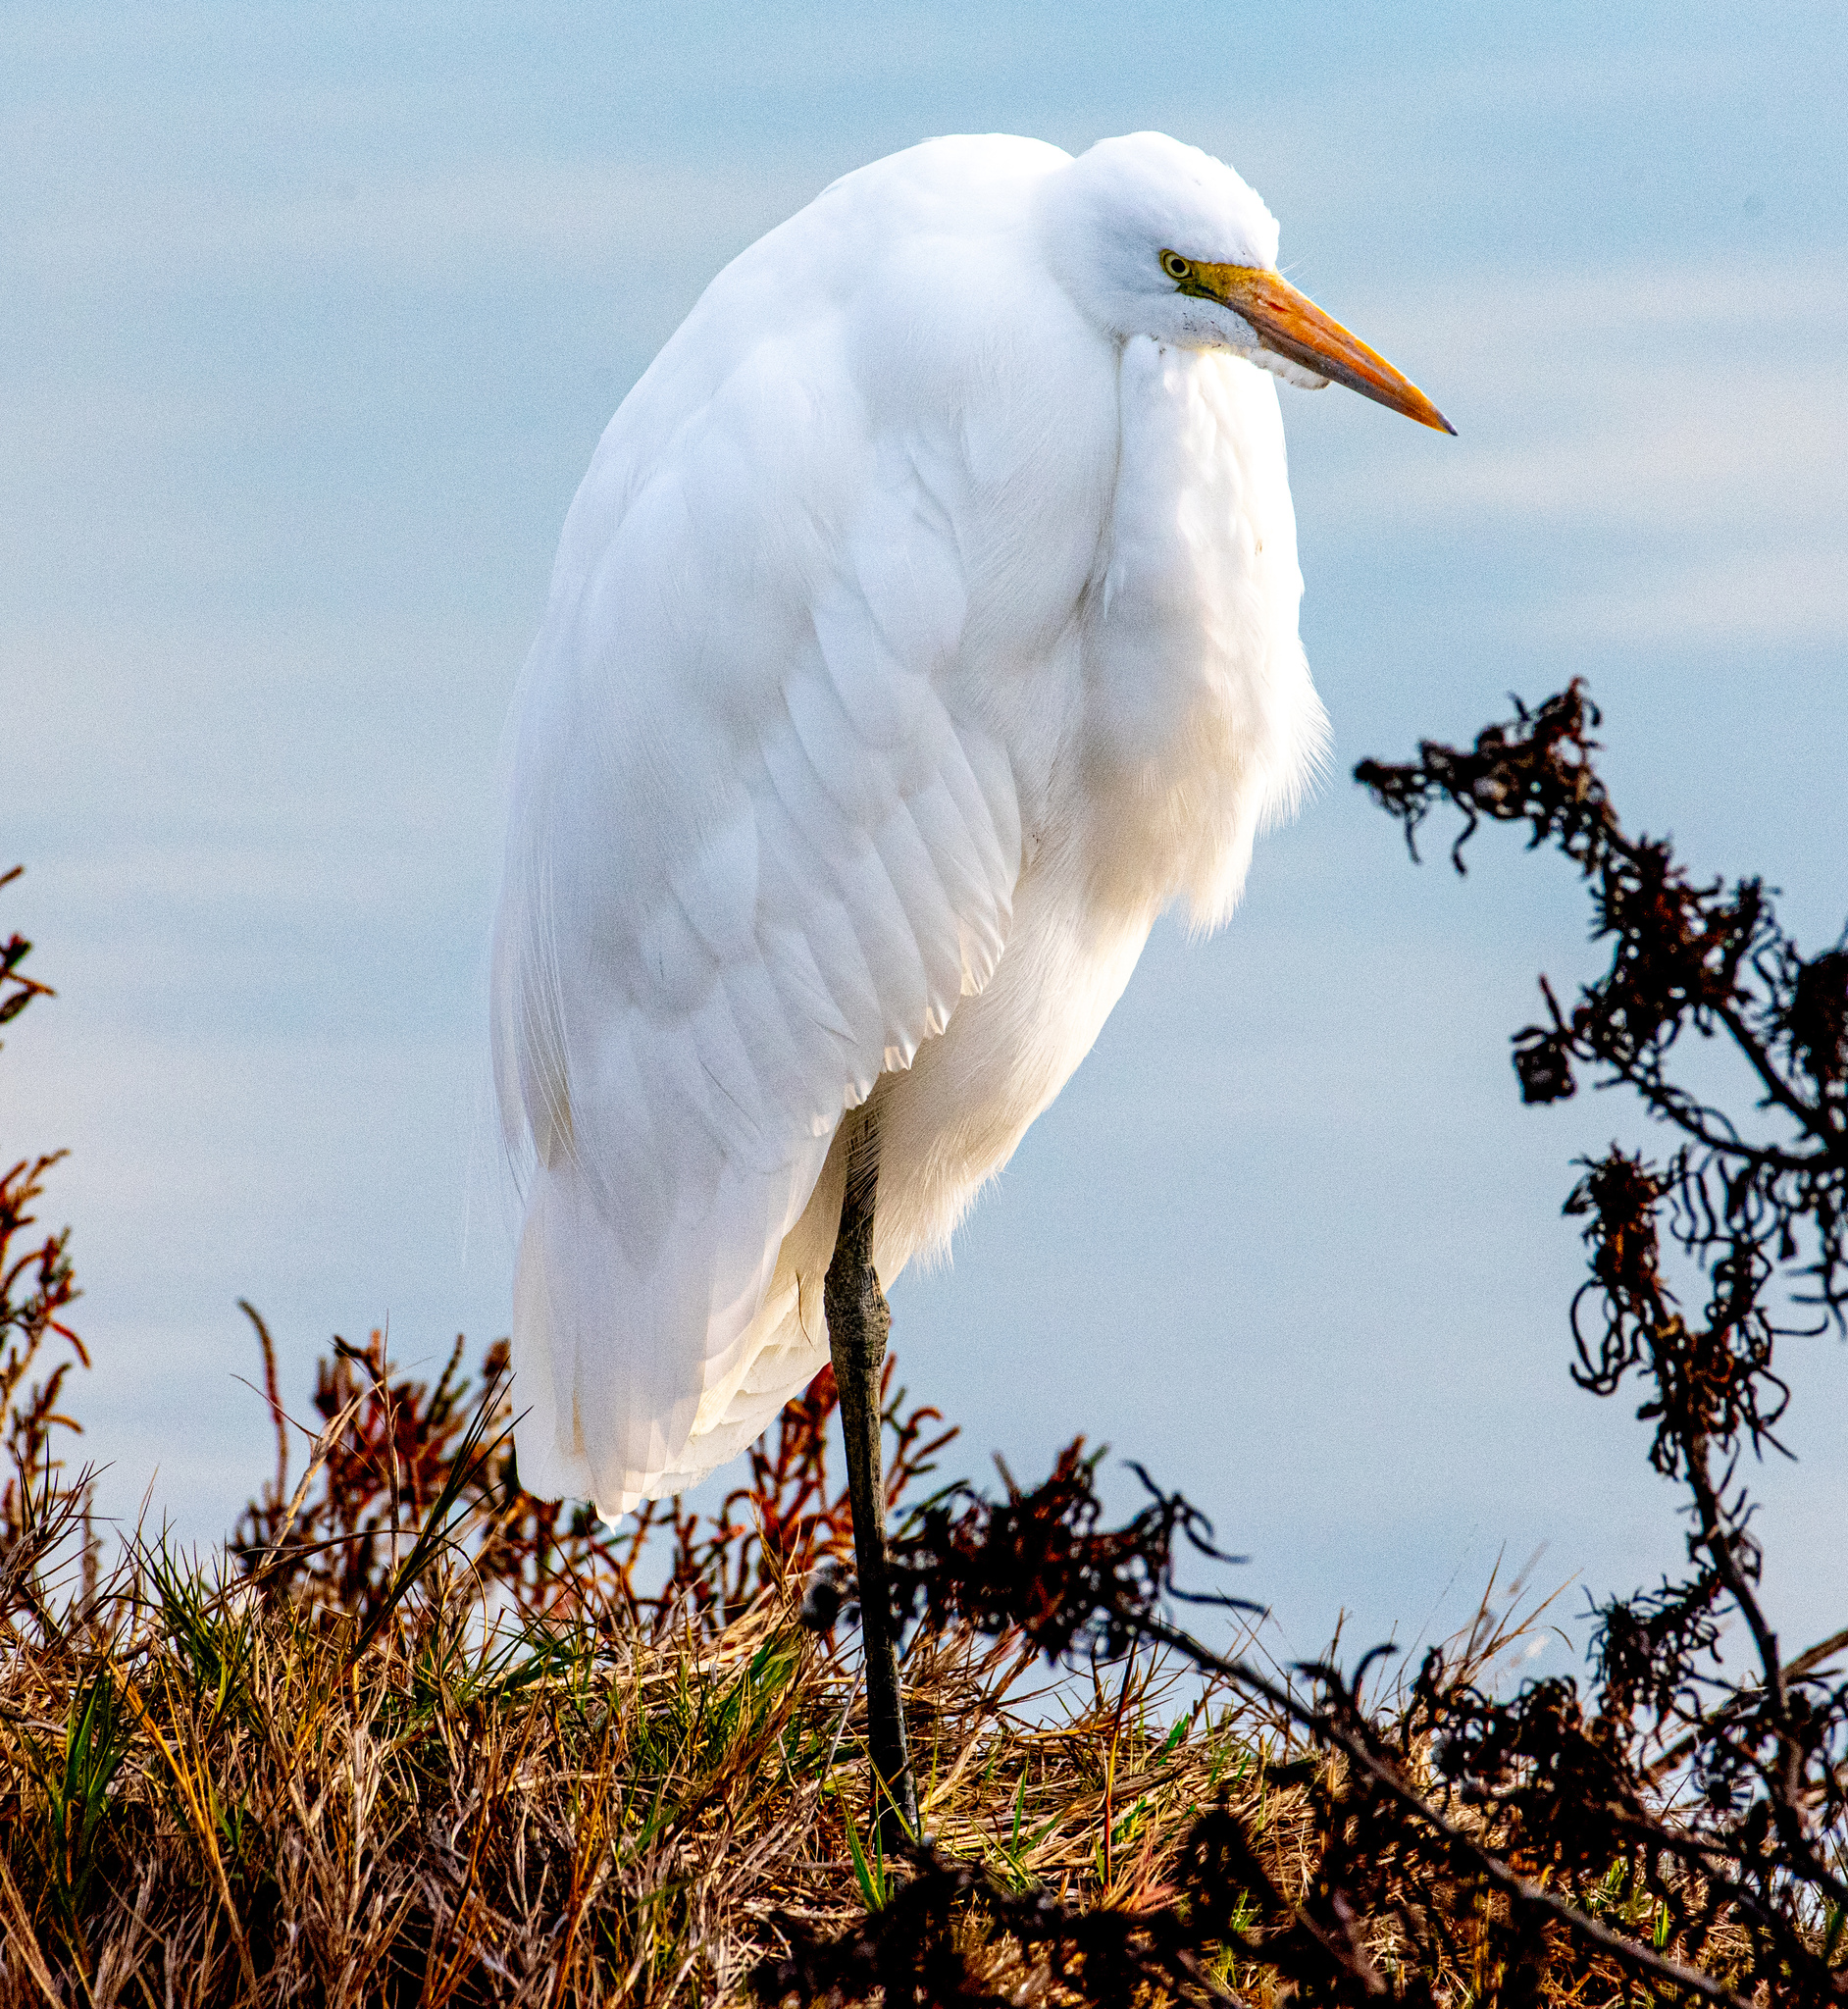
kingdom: Animalia
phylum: Chordata
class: Aves
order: Pelecaniformes
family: Ardeidae
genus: Ardea
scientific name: Ardea alba
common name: Great egret
